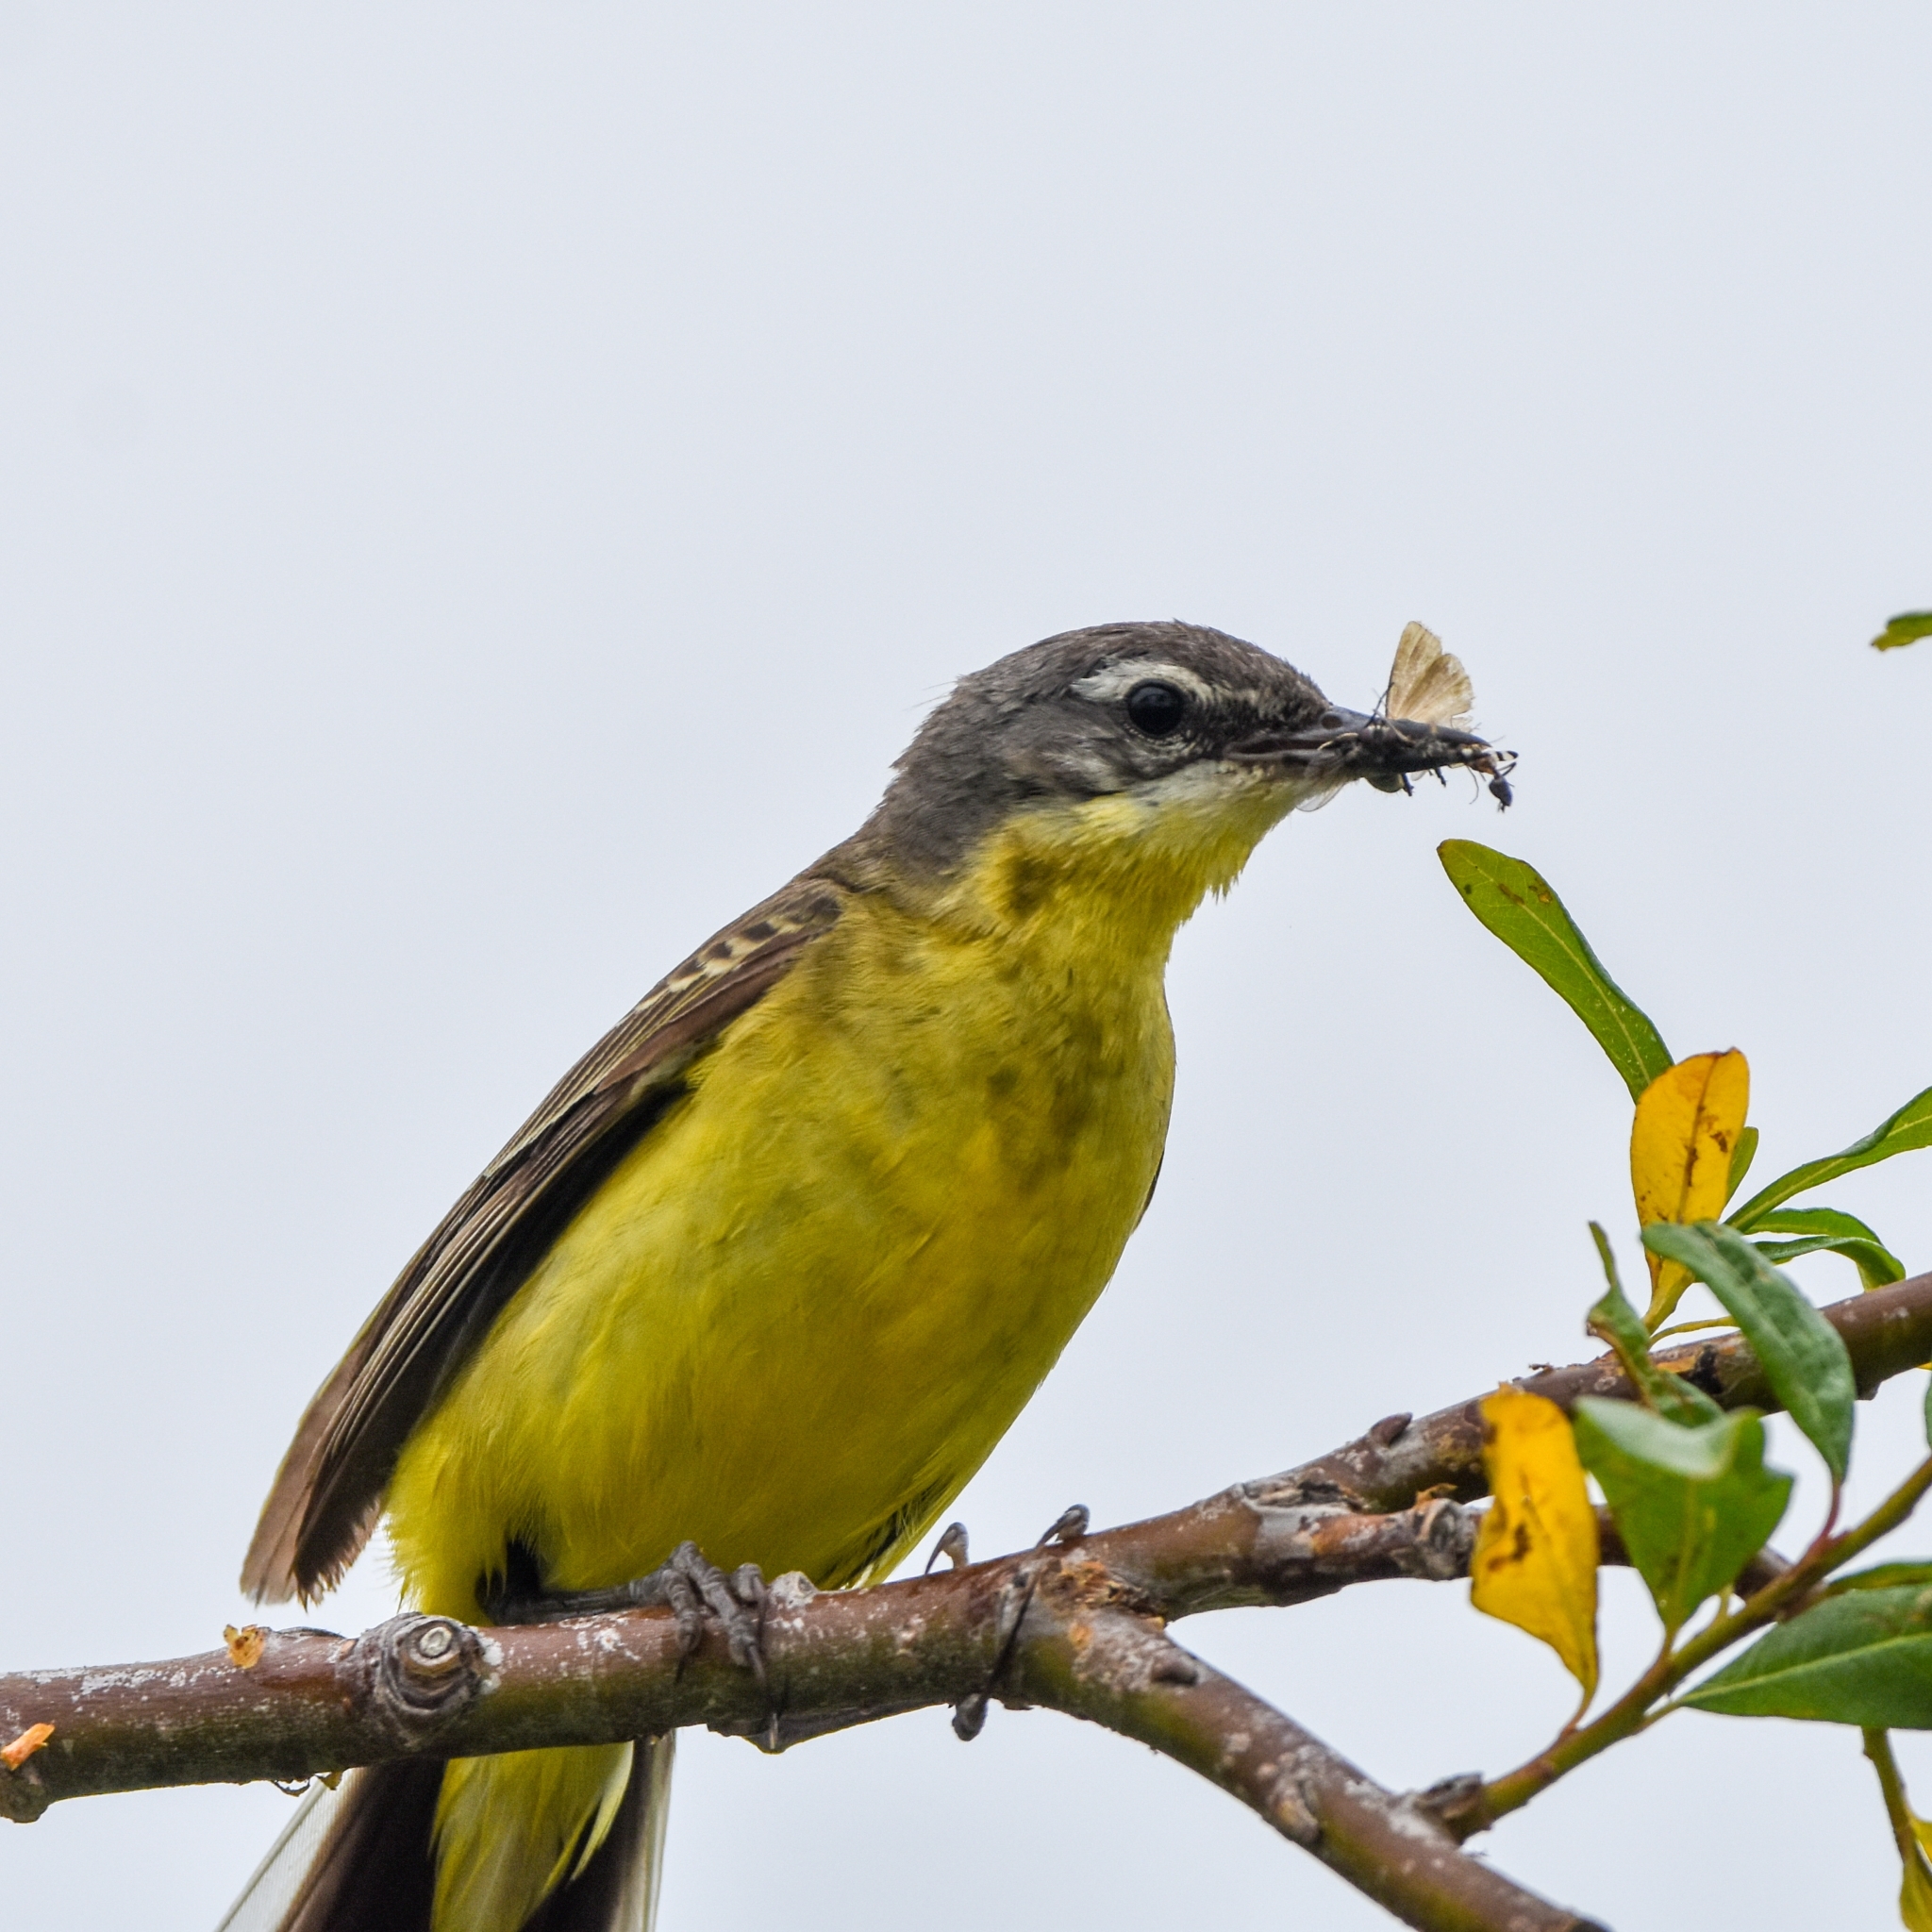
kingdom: Animalia
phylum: Chordata
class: Aves
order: Passeriformes
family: Motacillidae
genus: Motacilla
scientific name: Motacilla tschutschensis
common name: Eastern yellow wagtail
